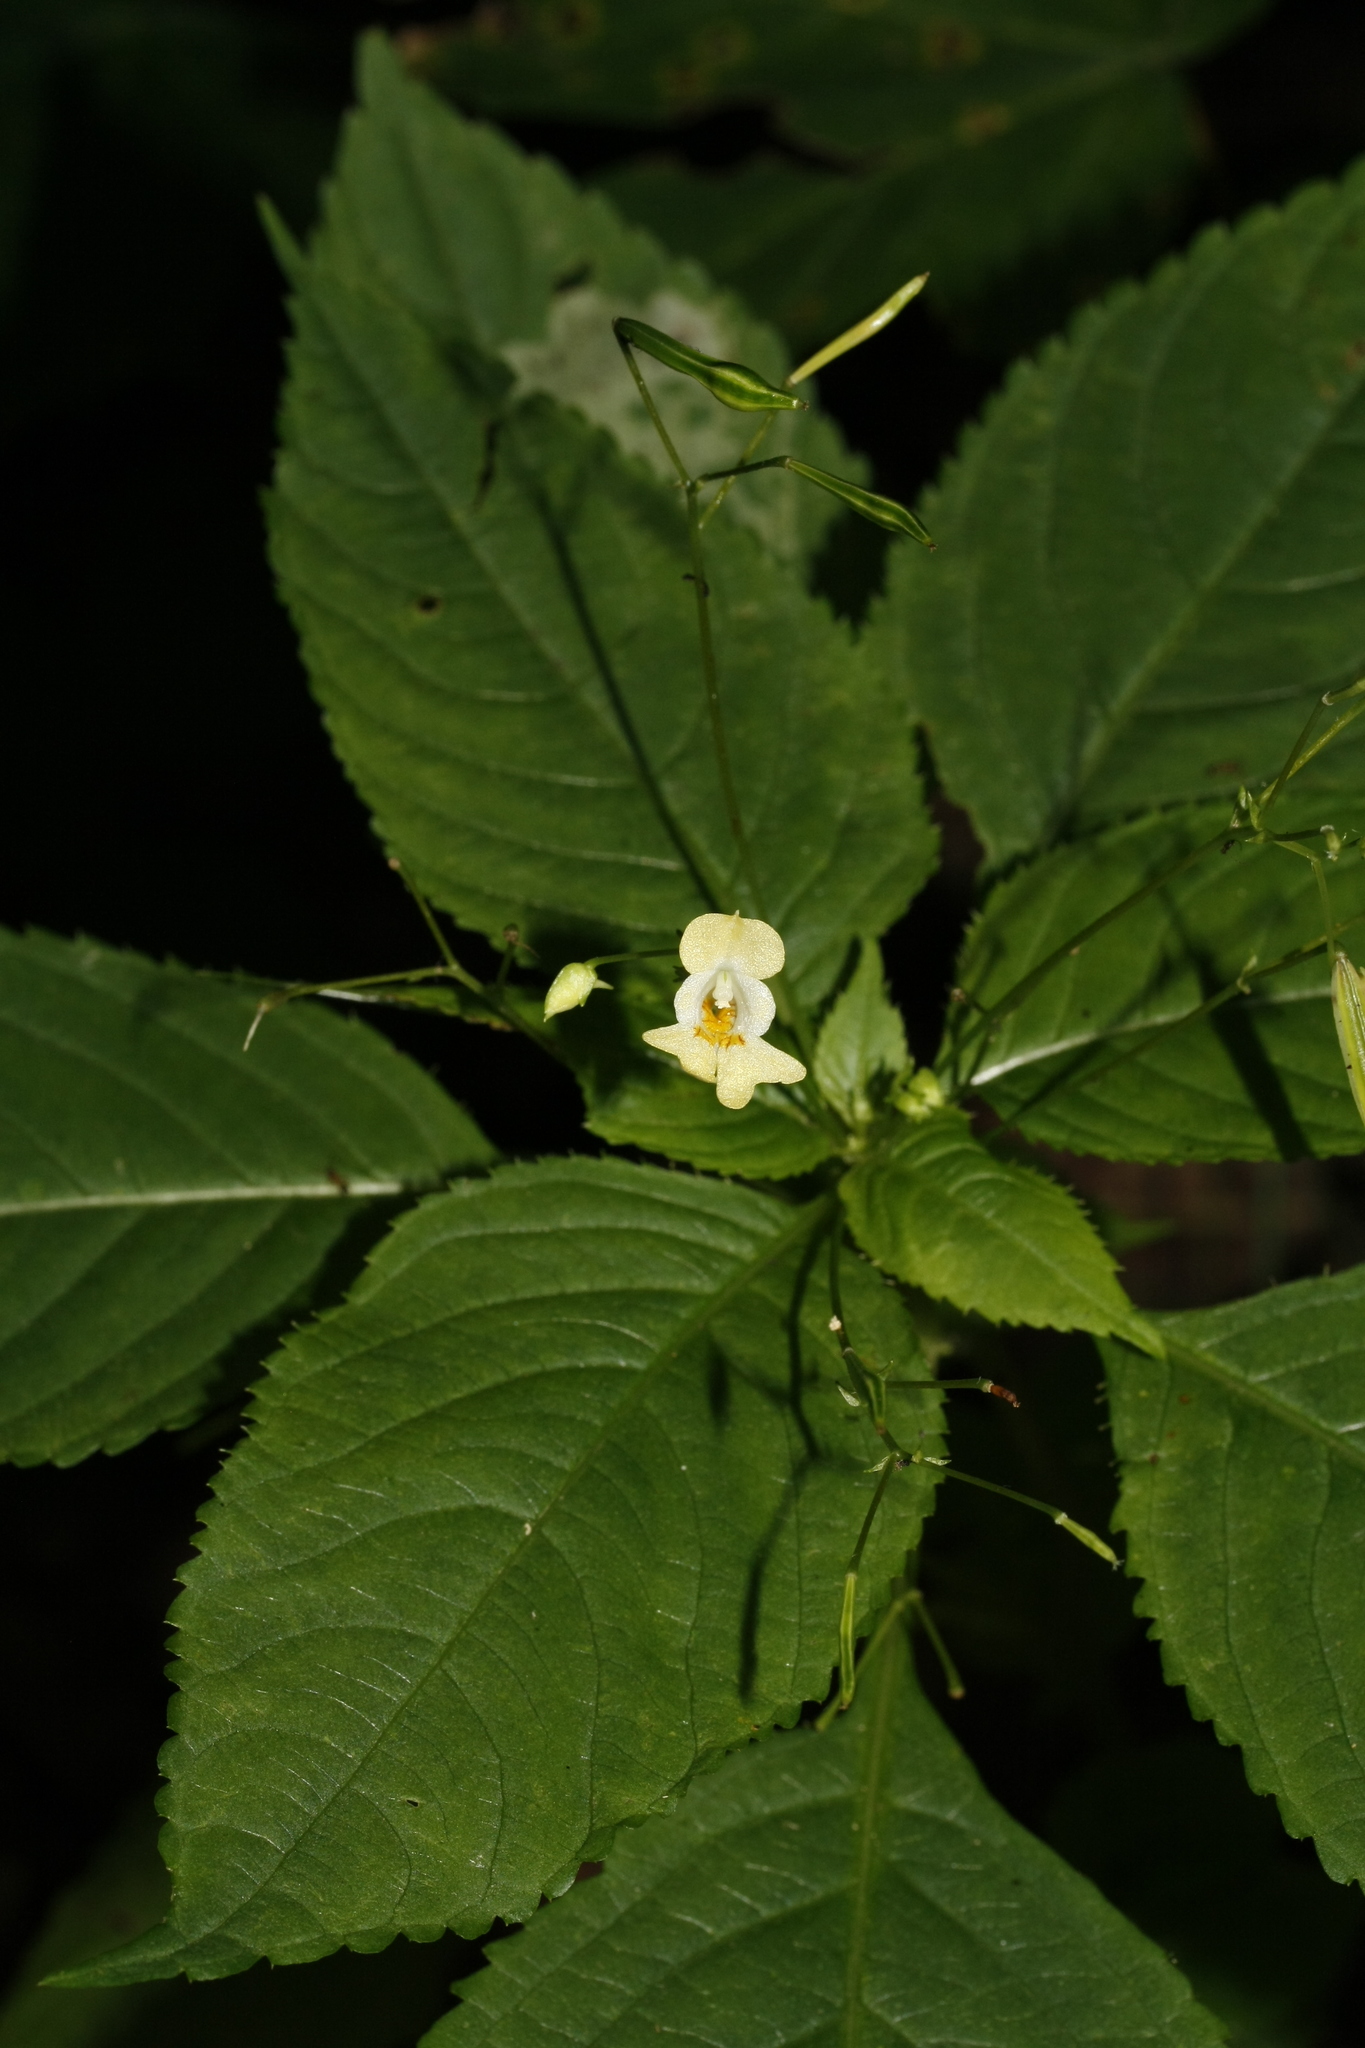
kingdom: Plantae
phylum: Tracheophyta
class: Magnoliopsida
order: Ericales
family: Balsaminaceae
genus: Impatiens
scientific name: Impatiens parviflora
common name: Small balsam
